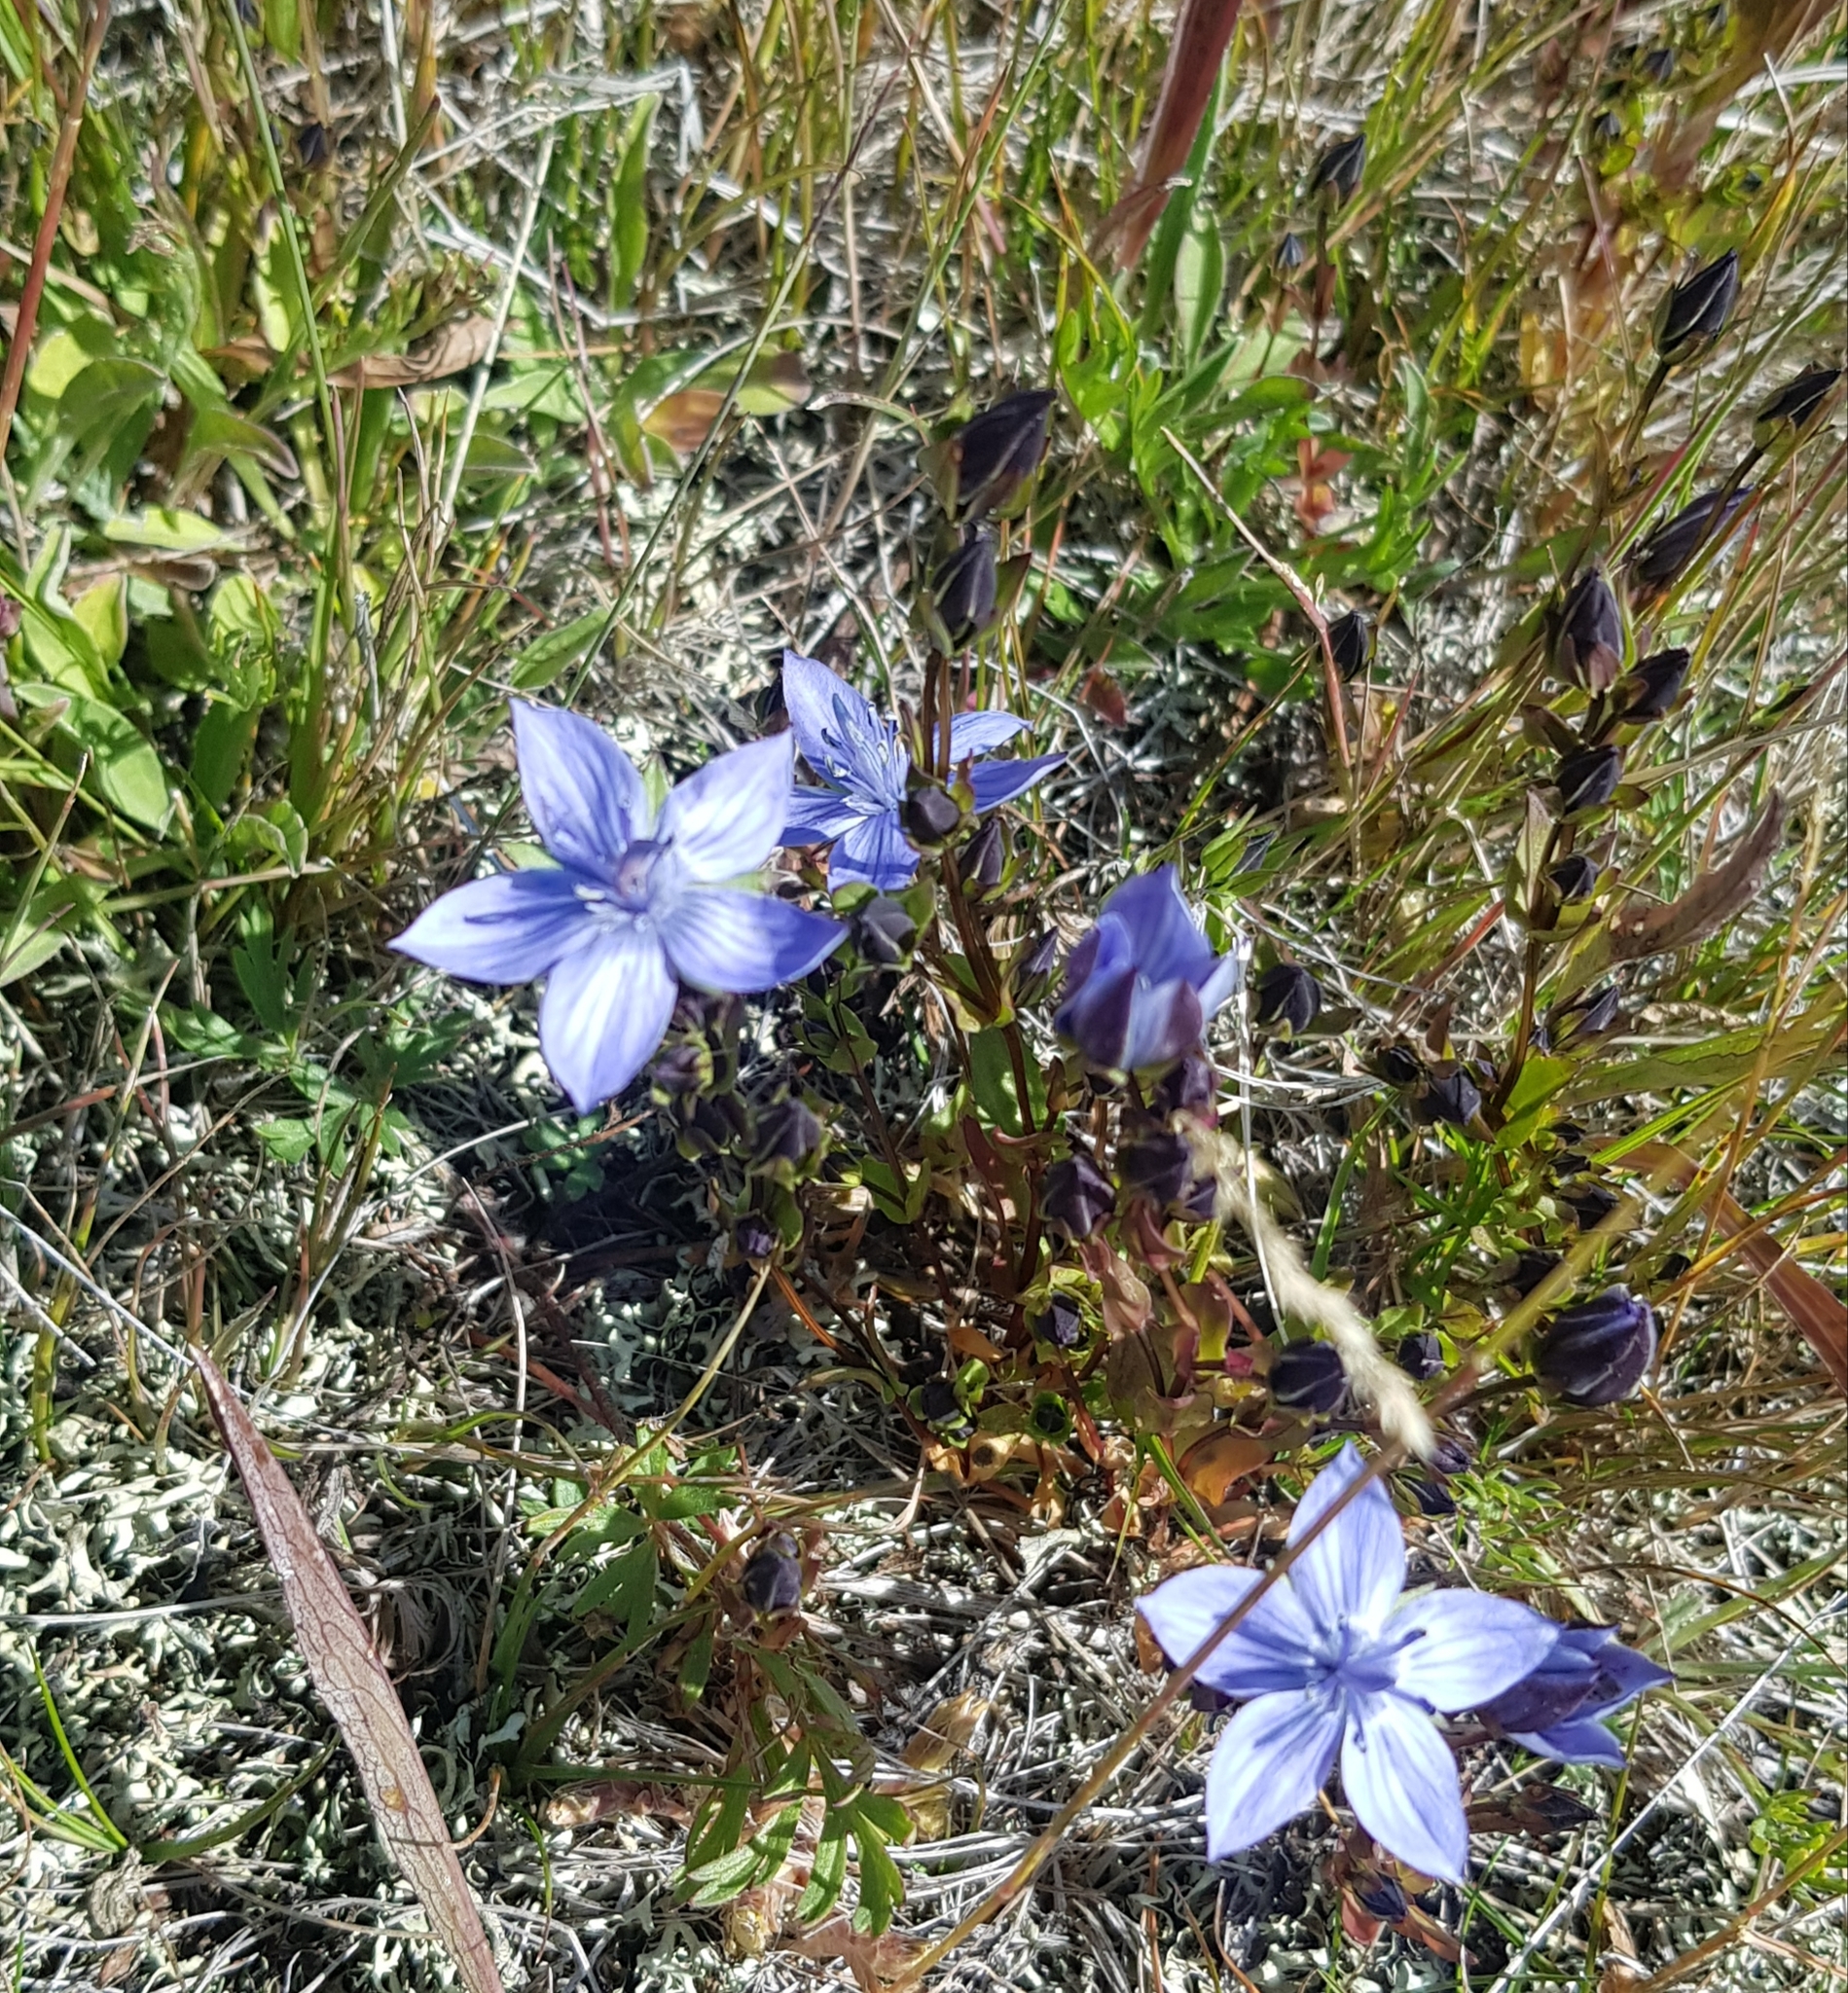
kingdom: Plantae
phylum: Tracheophyta
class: Magnoliopsida
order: Gentianales
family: Gentianaceae
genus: Lomatogonium
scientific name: Lomatogonium carinthiacum
